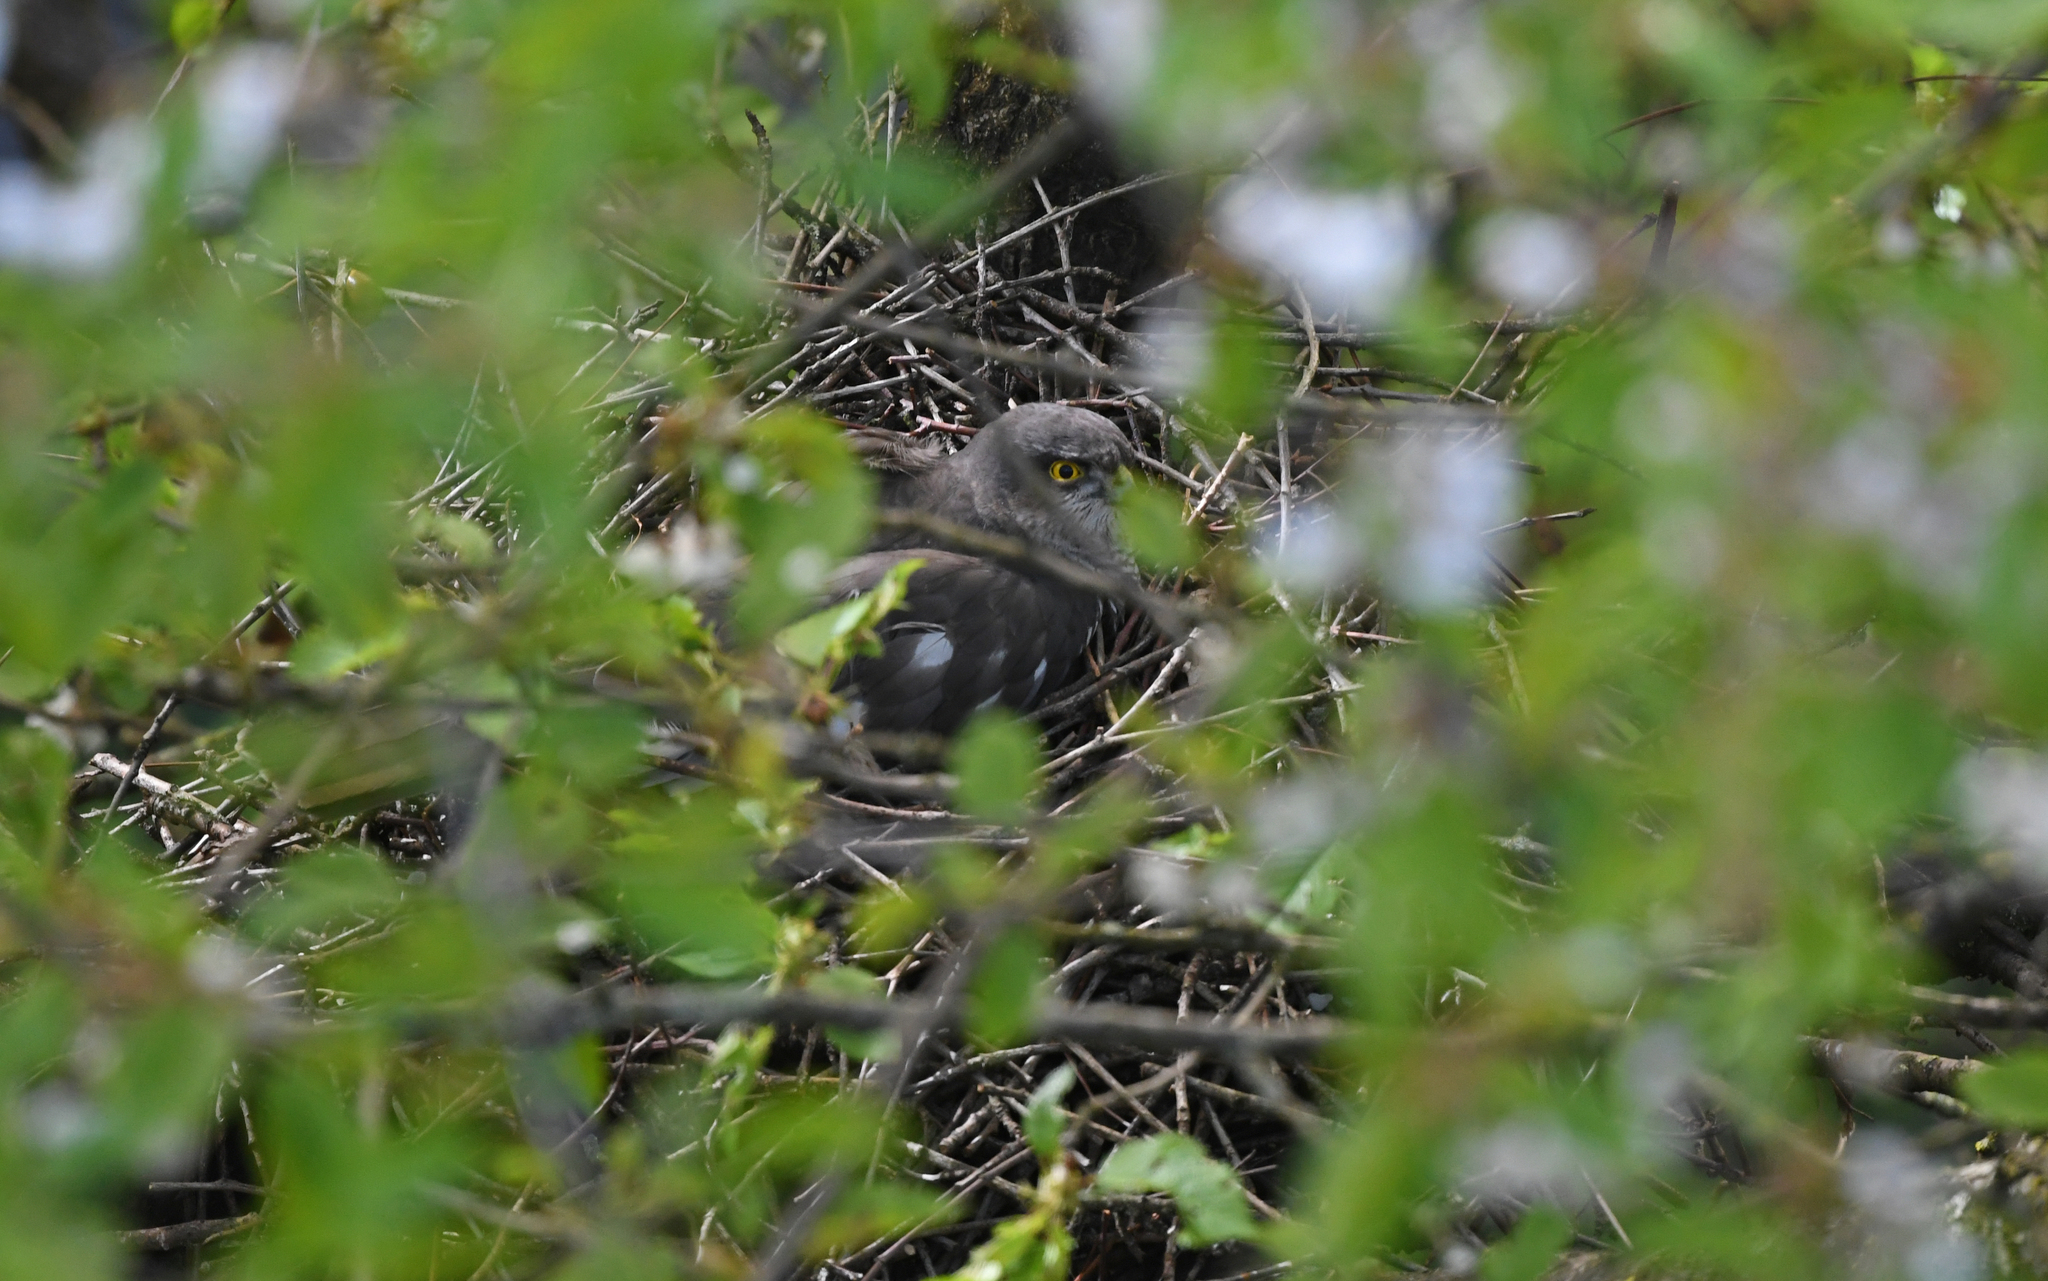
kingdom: Animalia
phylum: Chordata
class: Aves
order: Accipitriformes
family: Accipitridae
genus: Accipiter
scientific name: Accipiter nisus
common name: Eurasian sparrowhawk
